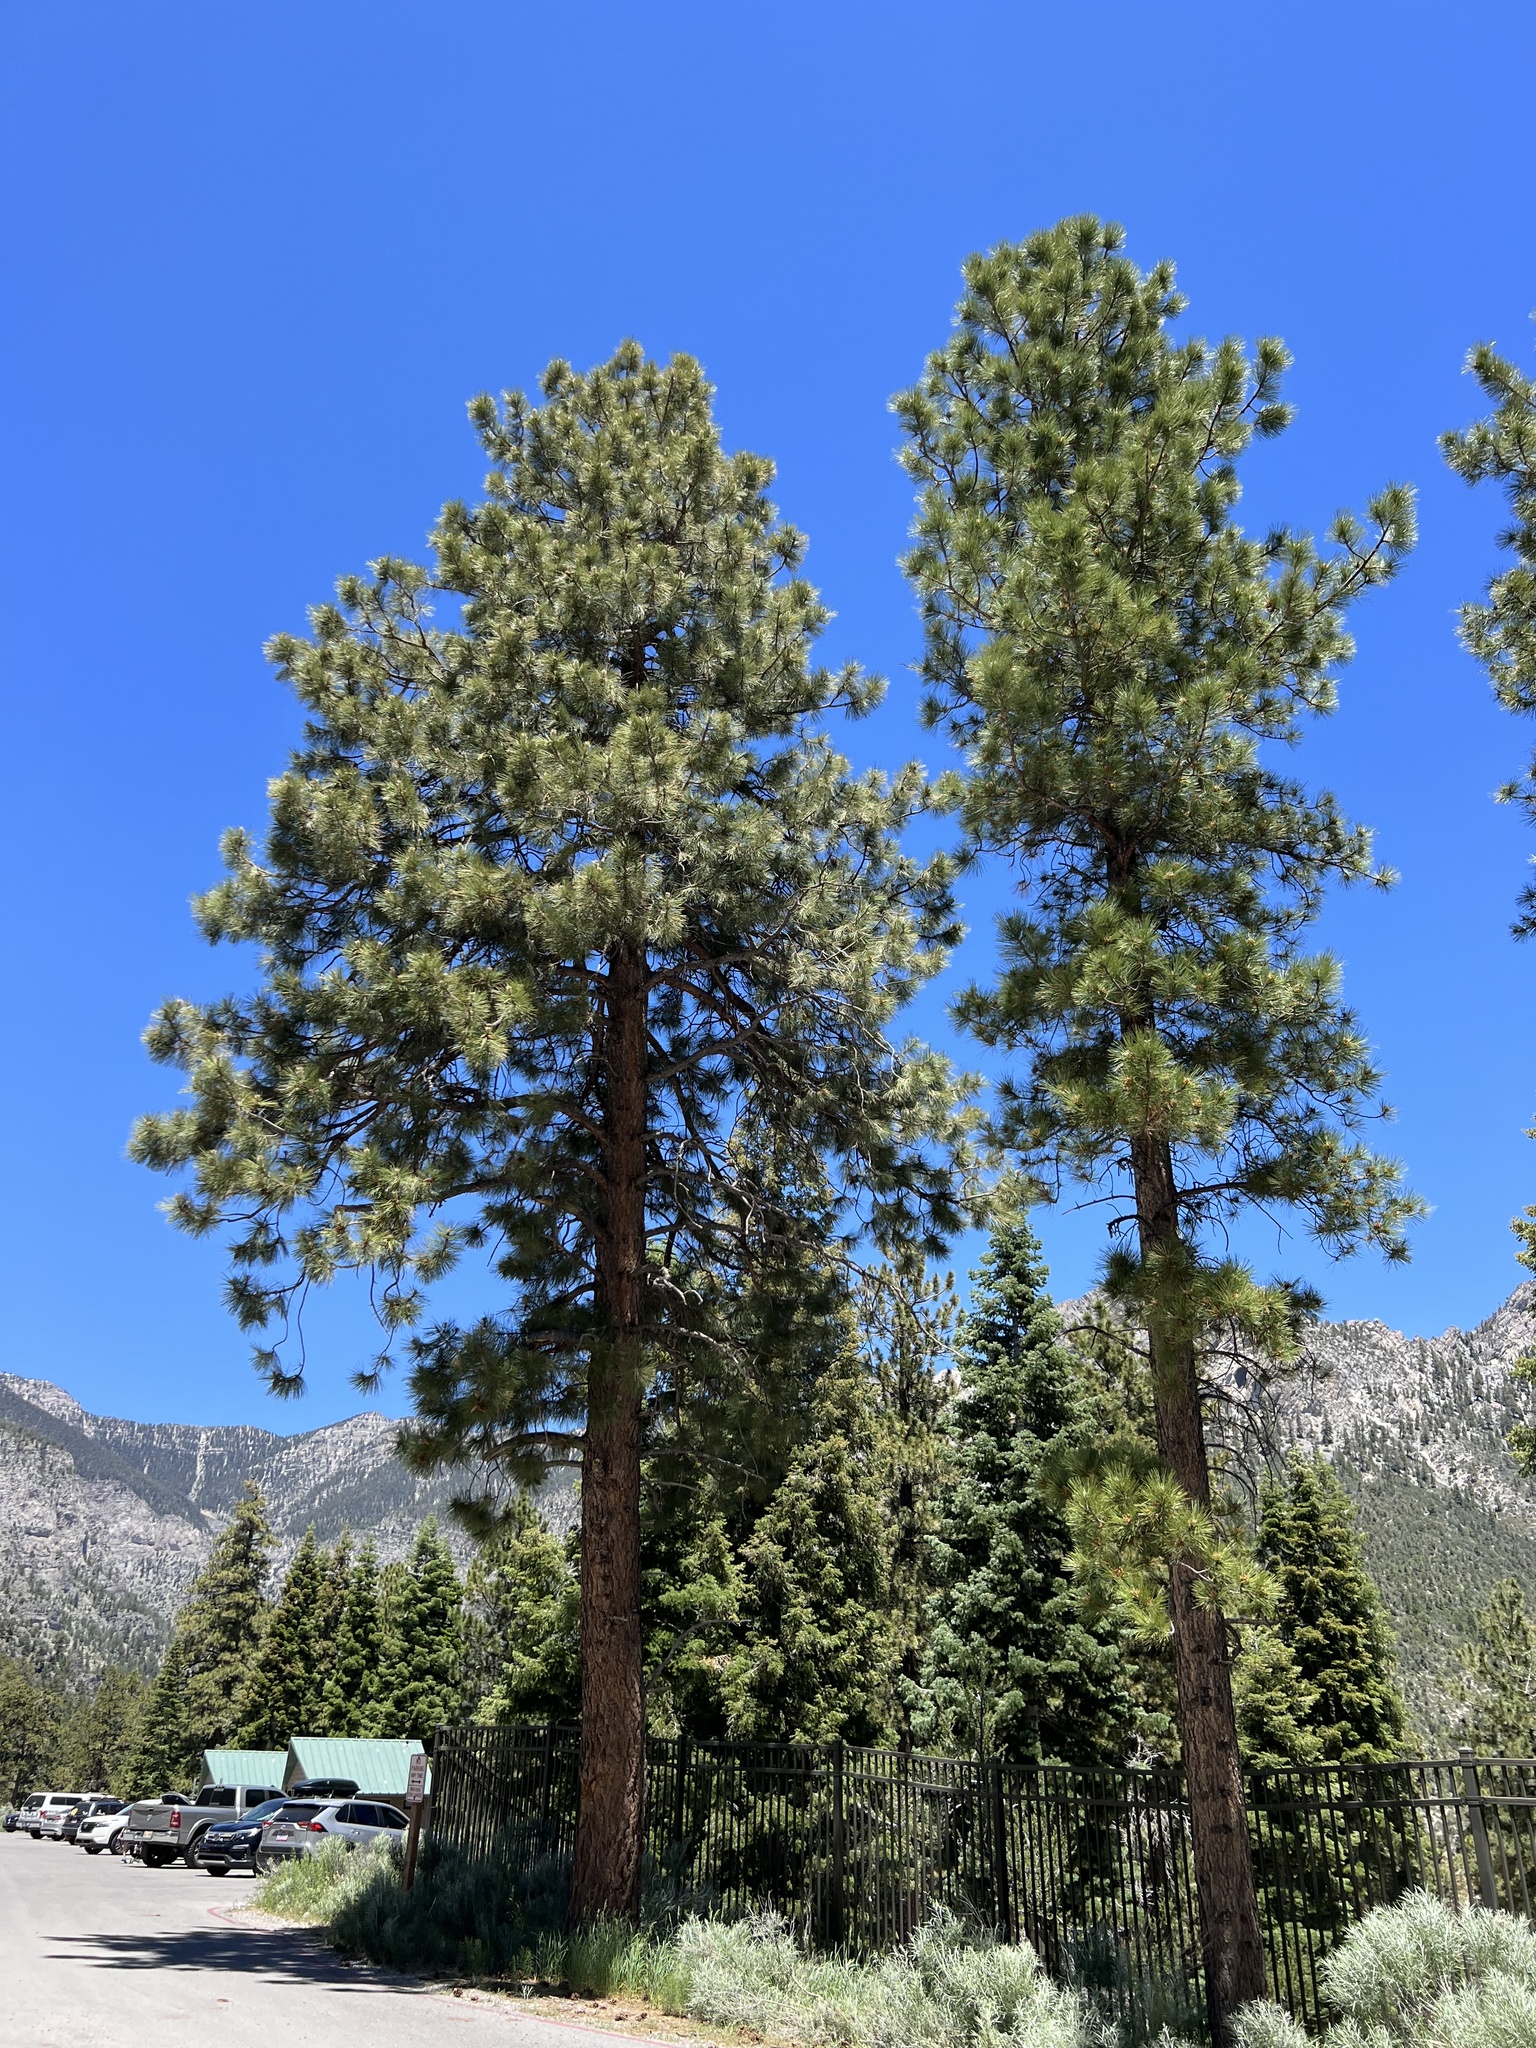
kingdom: Plantae
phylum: Tracheophyta
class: Pinopsida
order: Pinales
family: Pinaceae
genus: Pinus
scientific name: Pinus ponderosa
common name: Western yellow-pine
